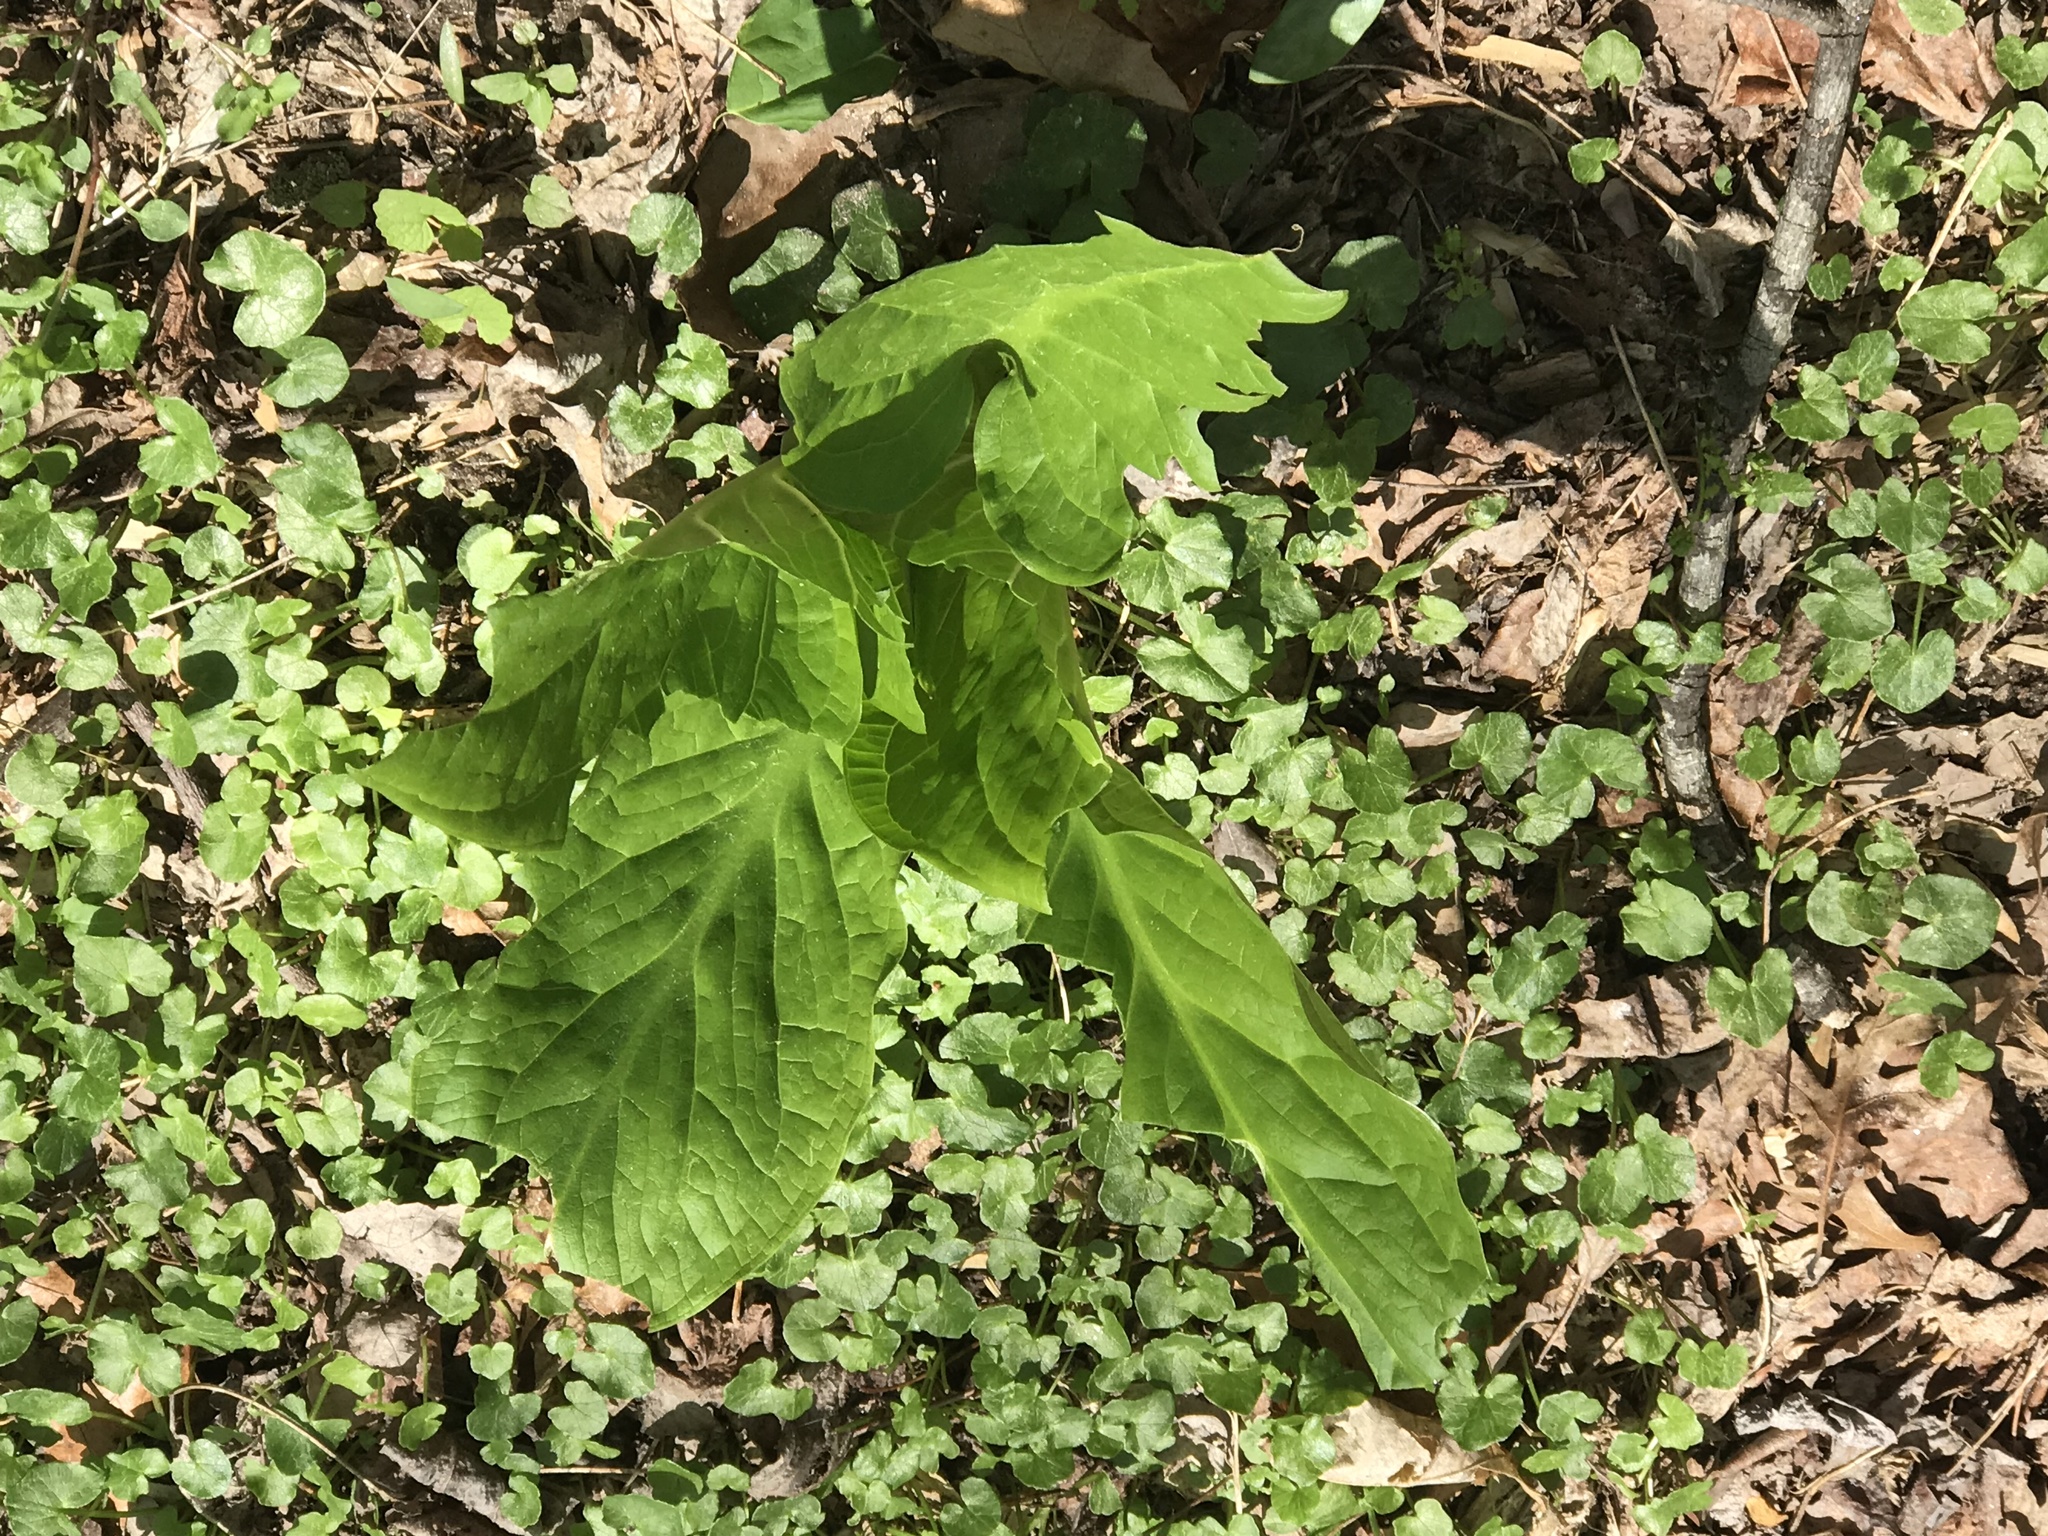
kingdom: Plantae
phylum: Tracheophyta
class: Liliopsida
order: Alismatales
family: Araceae
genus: Symplocarpus
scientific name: Symplocarpus foetidus
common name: Eastern skunk cabbage
